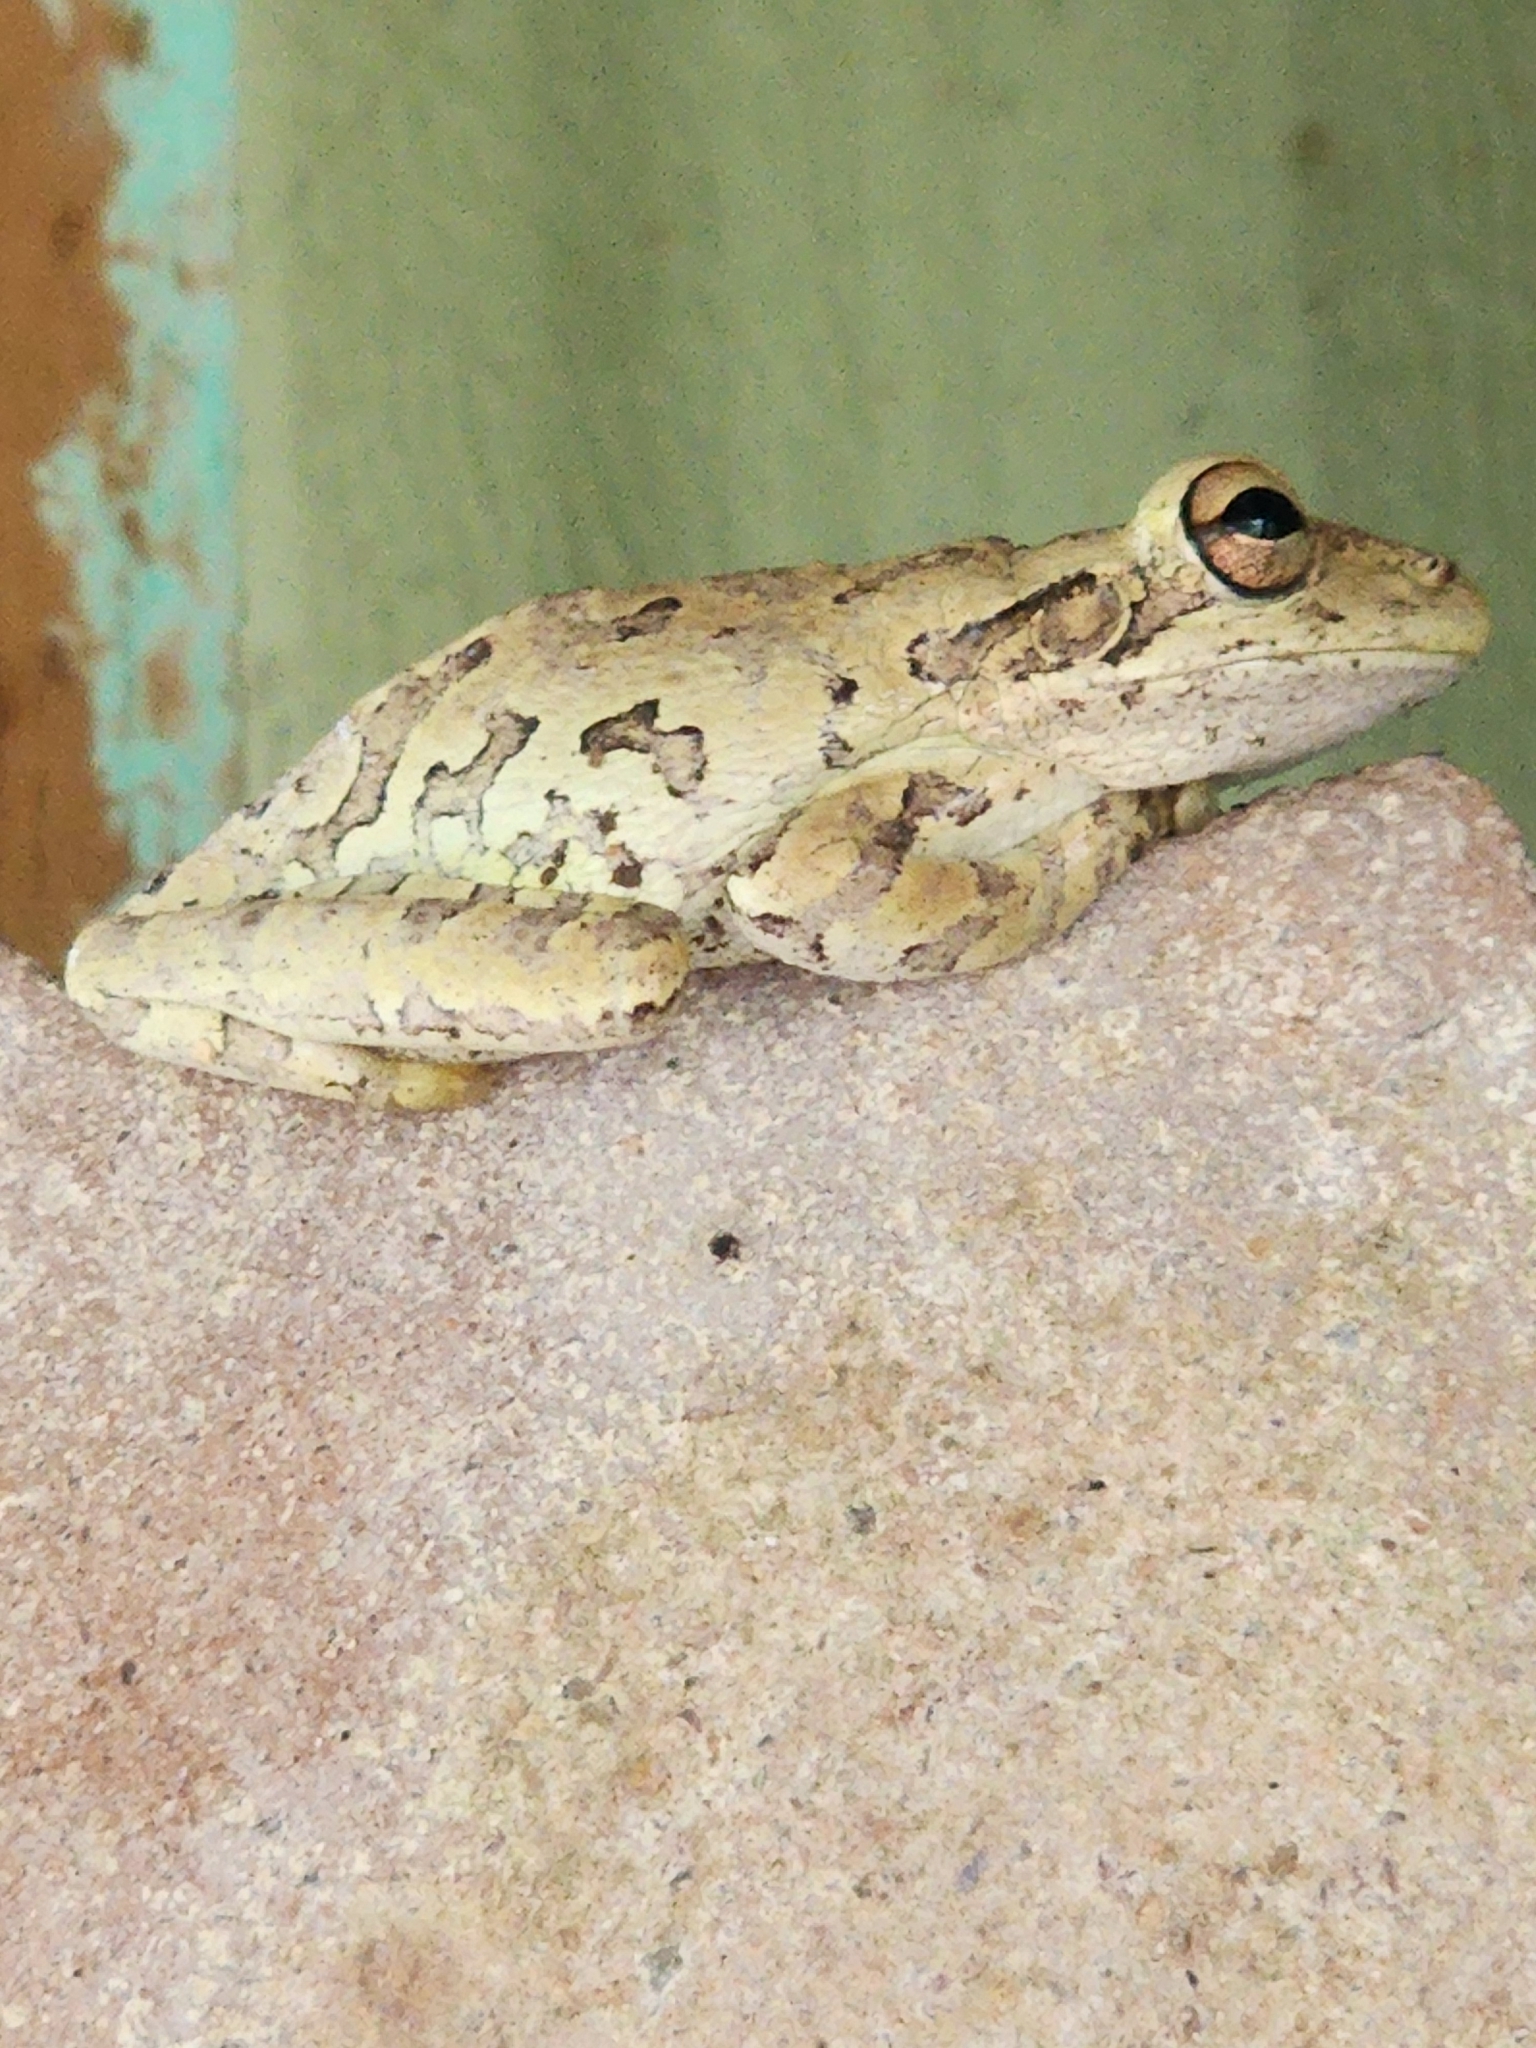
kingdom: Animalia
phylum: Chordata
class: Amphibia
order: Anura
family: Hylidae
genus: Osteopilus
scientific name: Osteopilus septentrionalis
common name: Cuban treefrog
